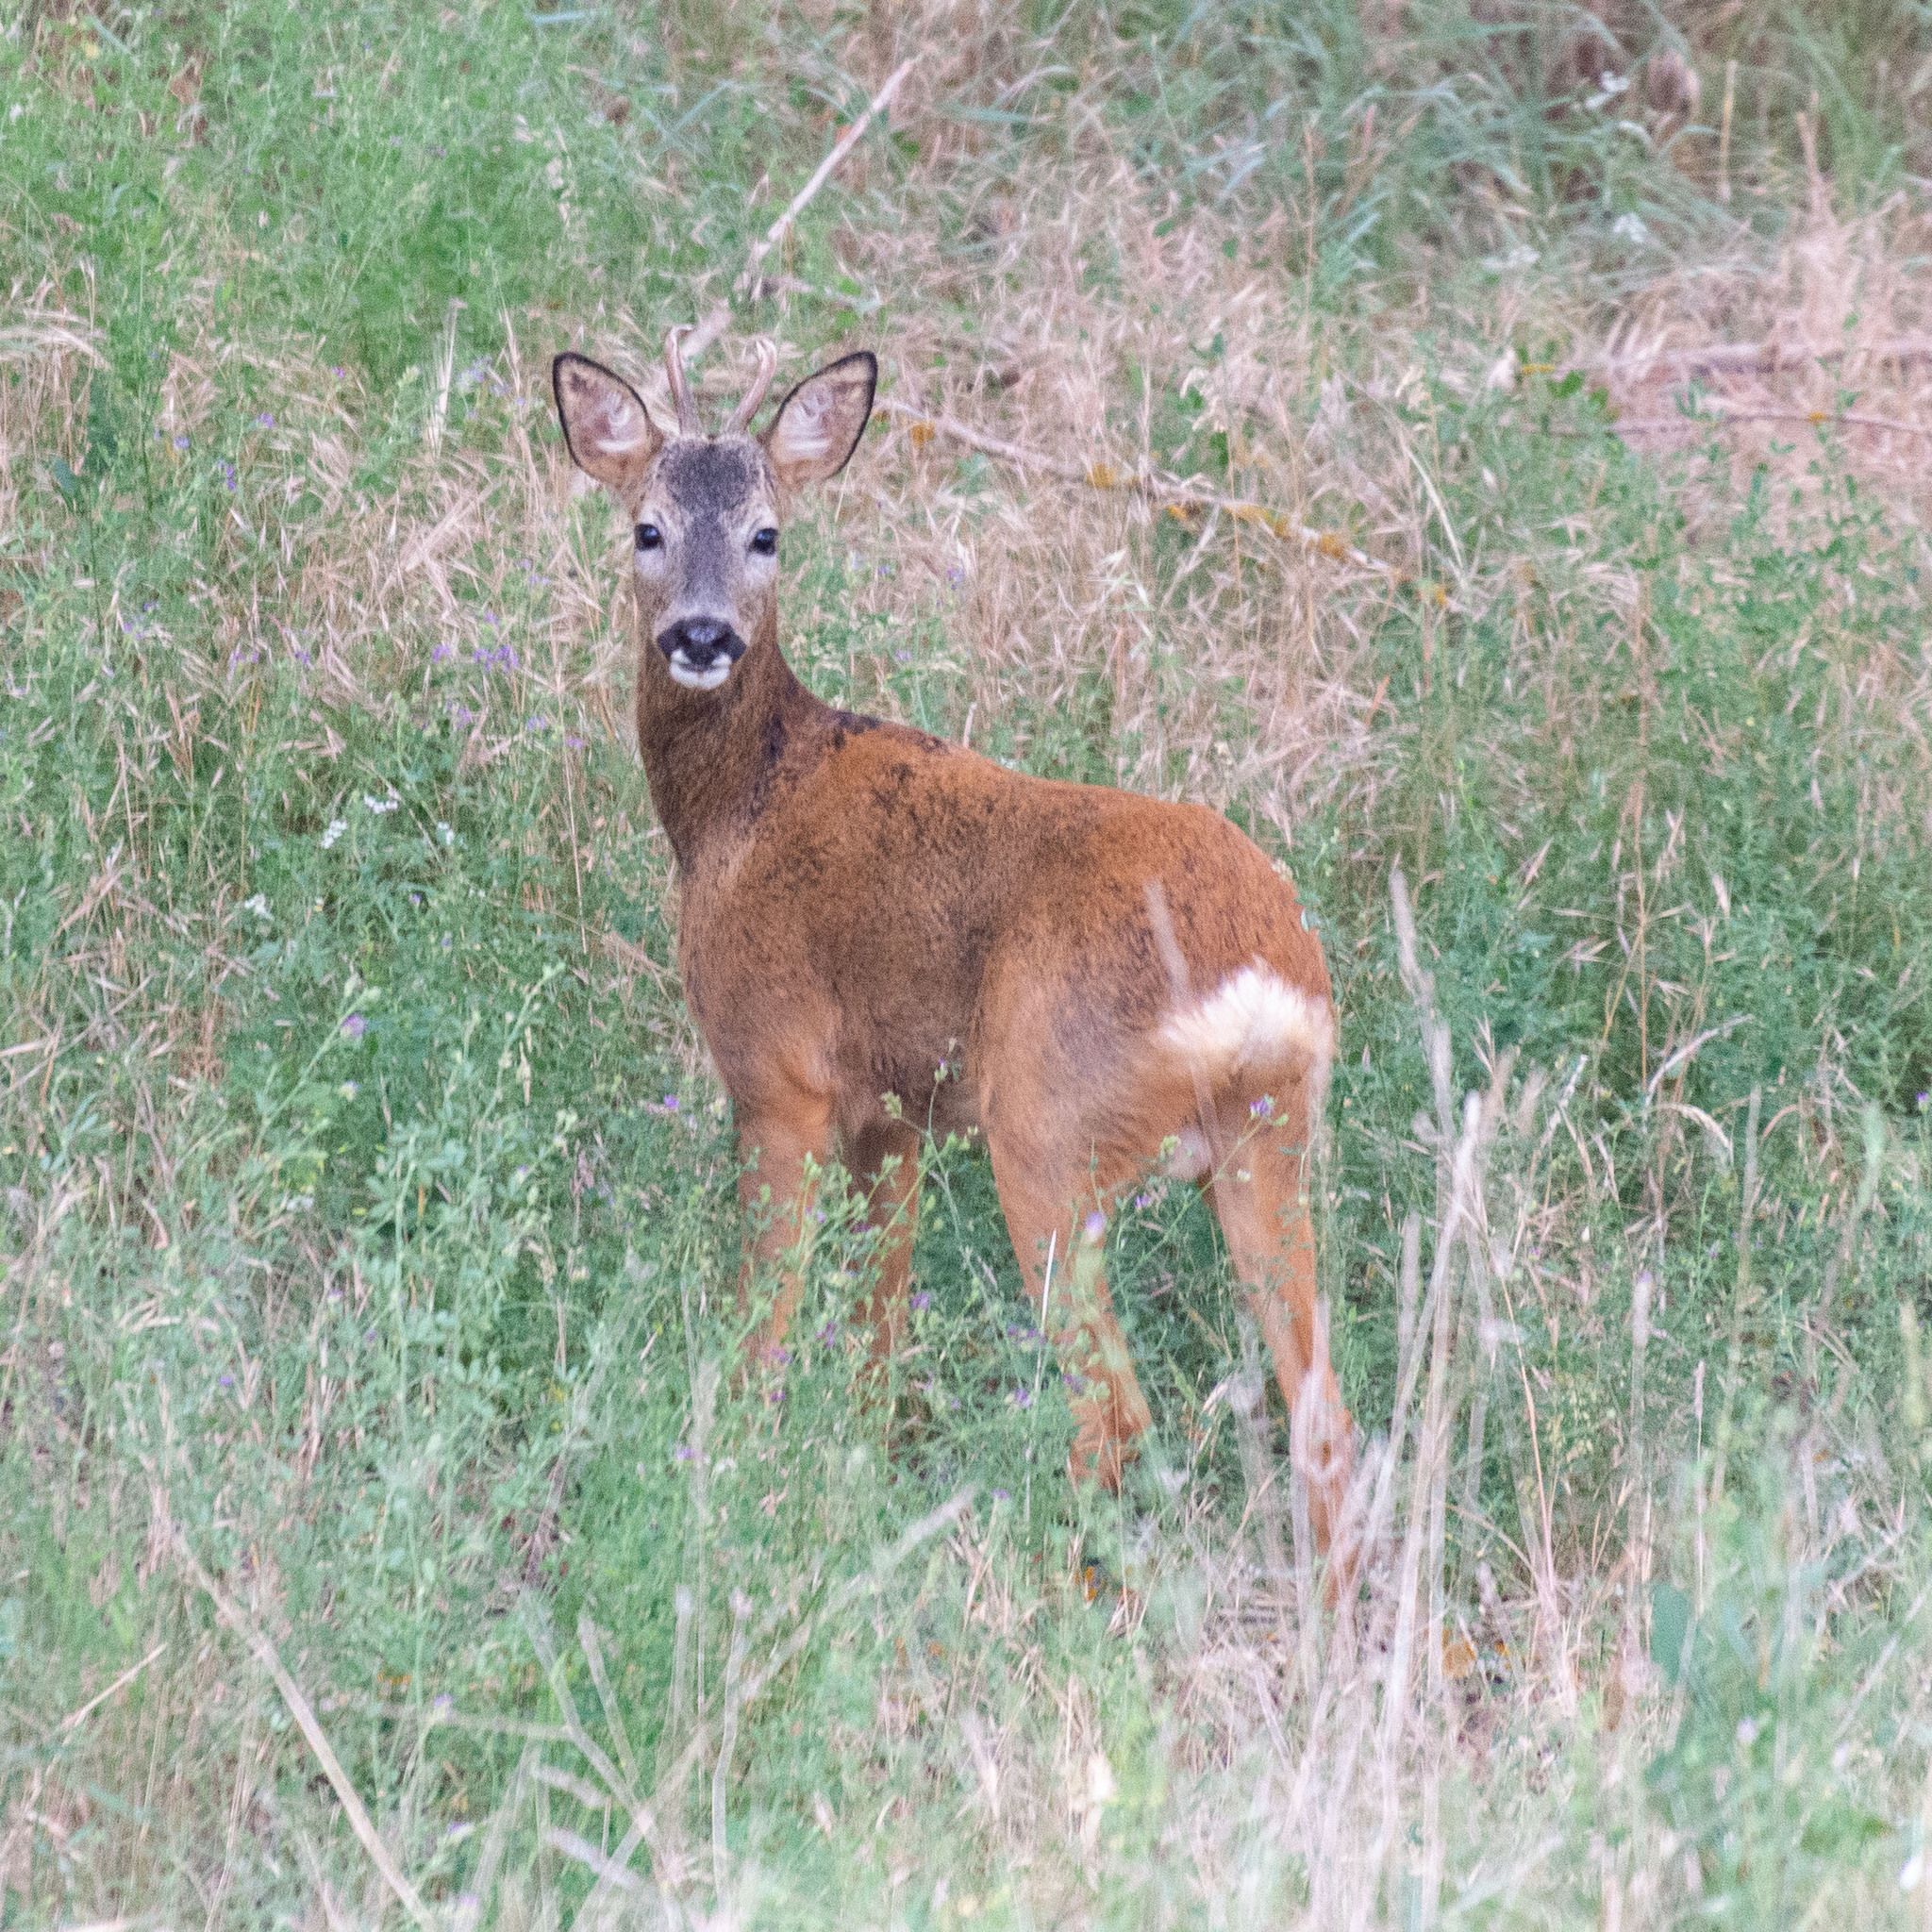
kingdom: Animalia
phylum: Chordata
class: Mammalia
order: Artiodactyla
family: Cervidae
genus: Capreolus
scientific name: Capreolus capreolus
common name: Western roe deer
